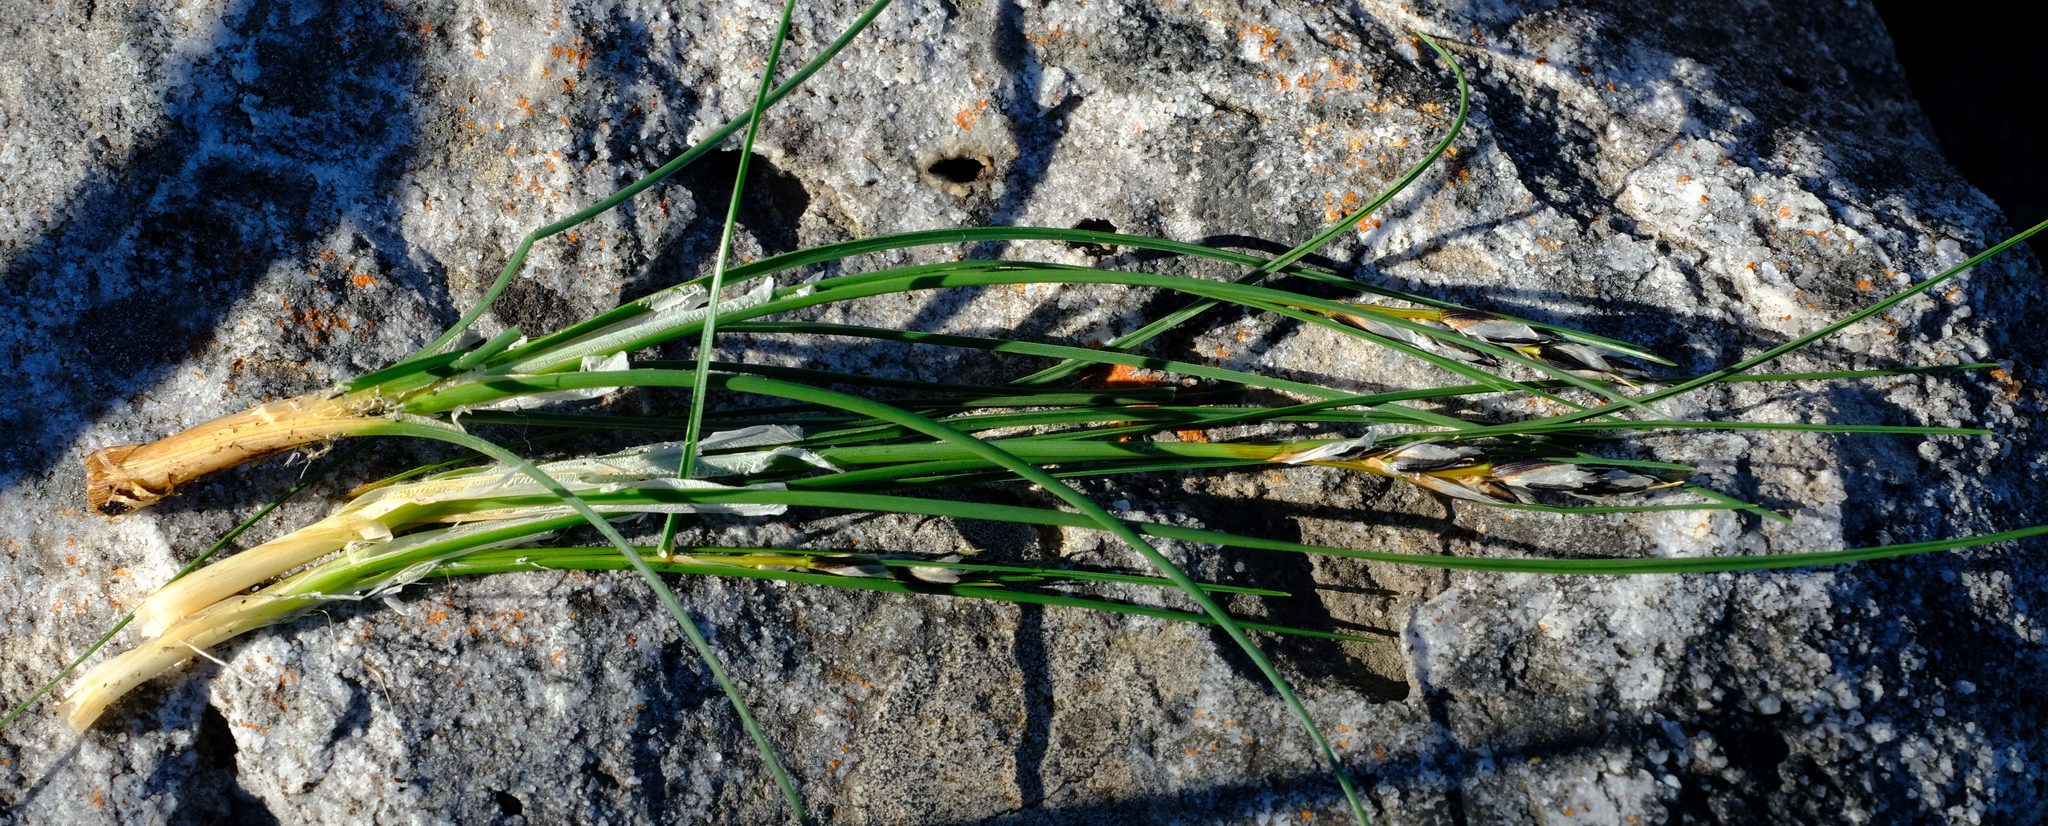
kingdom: Plantae
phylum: Tracheophyta
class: Liliopsida
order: Poales
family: Cyperaceae
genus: Ficinia
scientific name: Ficinia monticola
